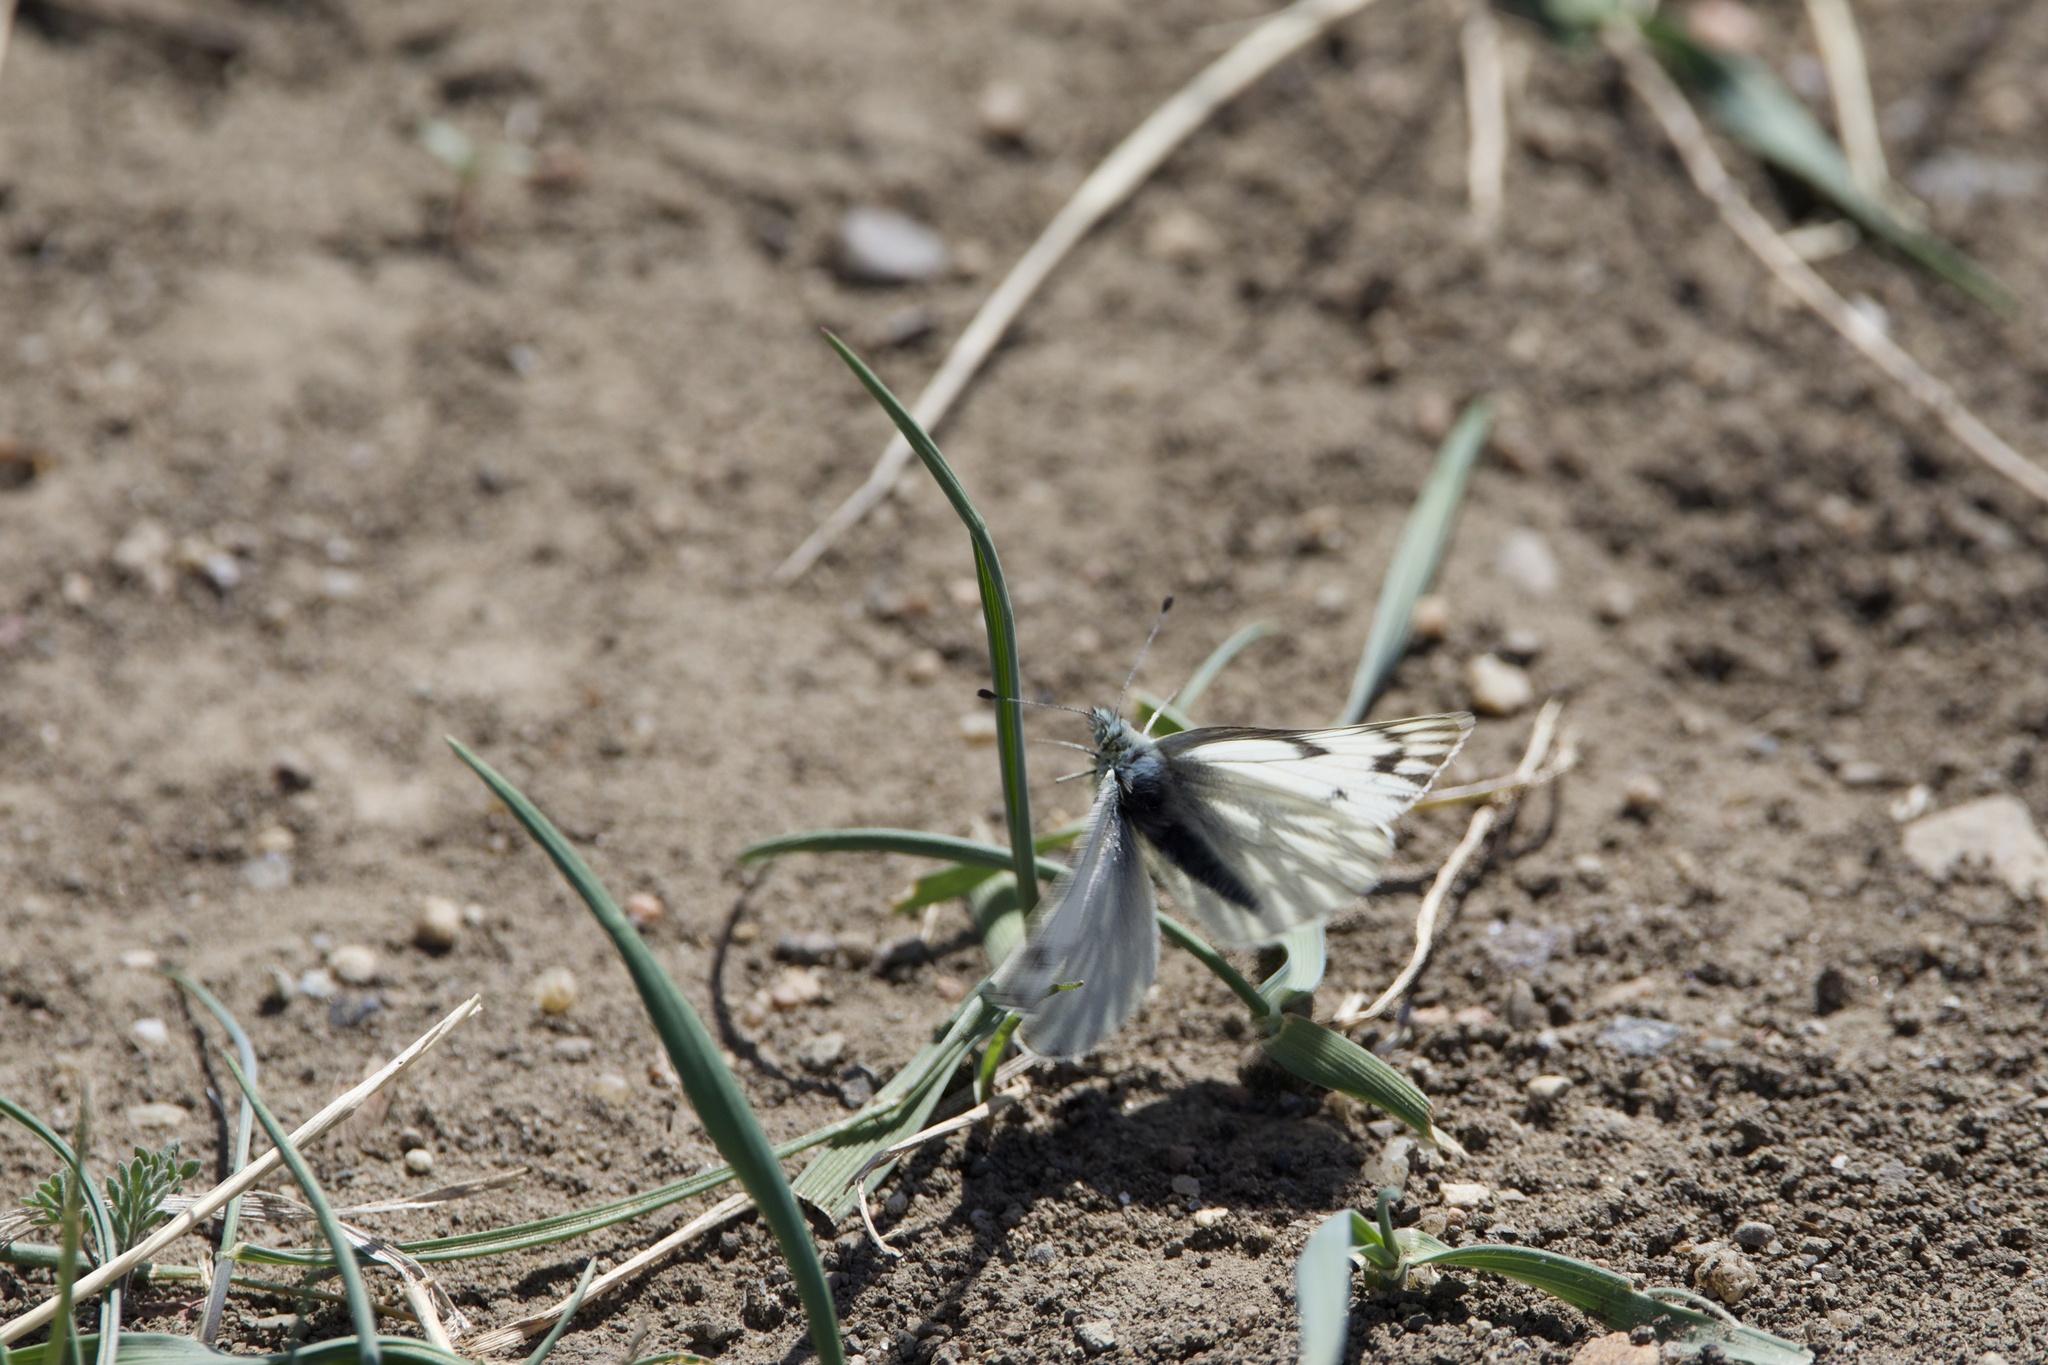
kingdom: Animalia
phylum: Arthropoda
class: Insecta
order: Lepidoptera
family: Pieridae
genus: Pontia
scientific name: Pontia occidentalis
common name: Western white
